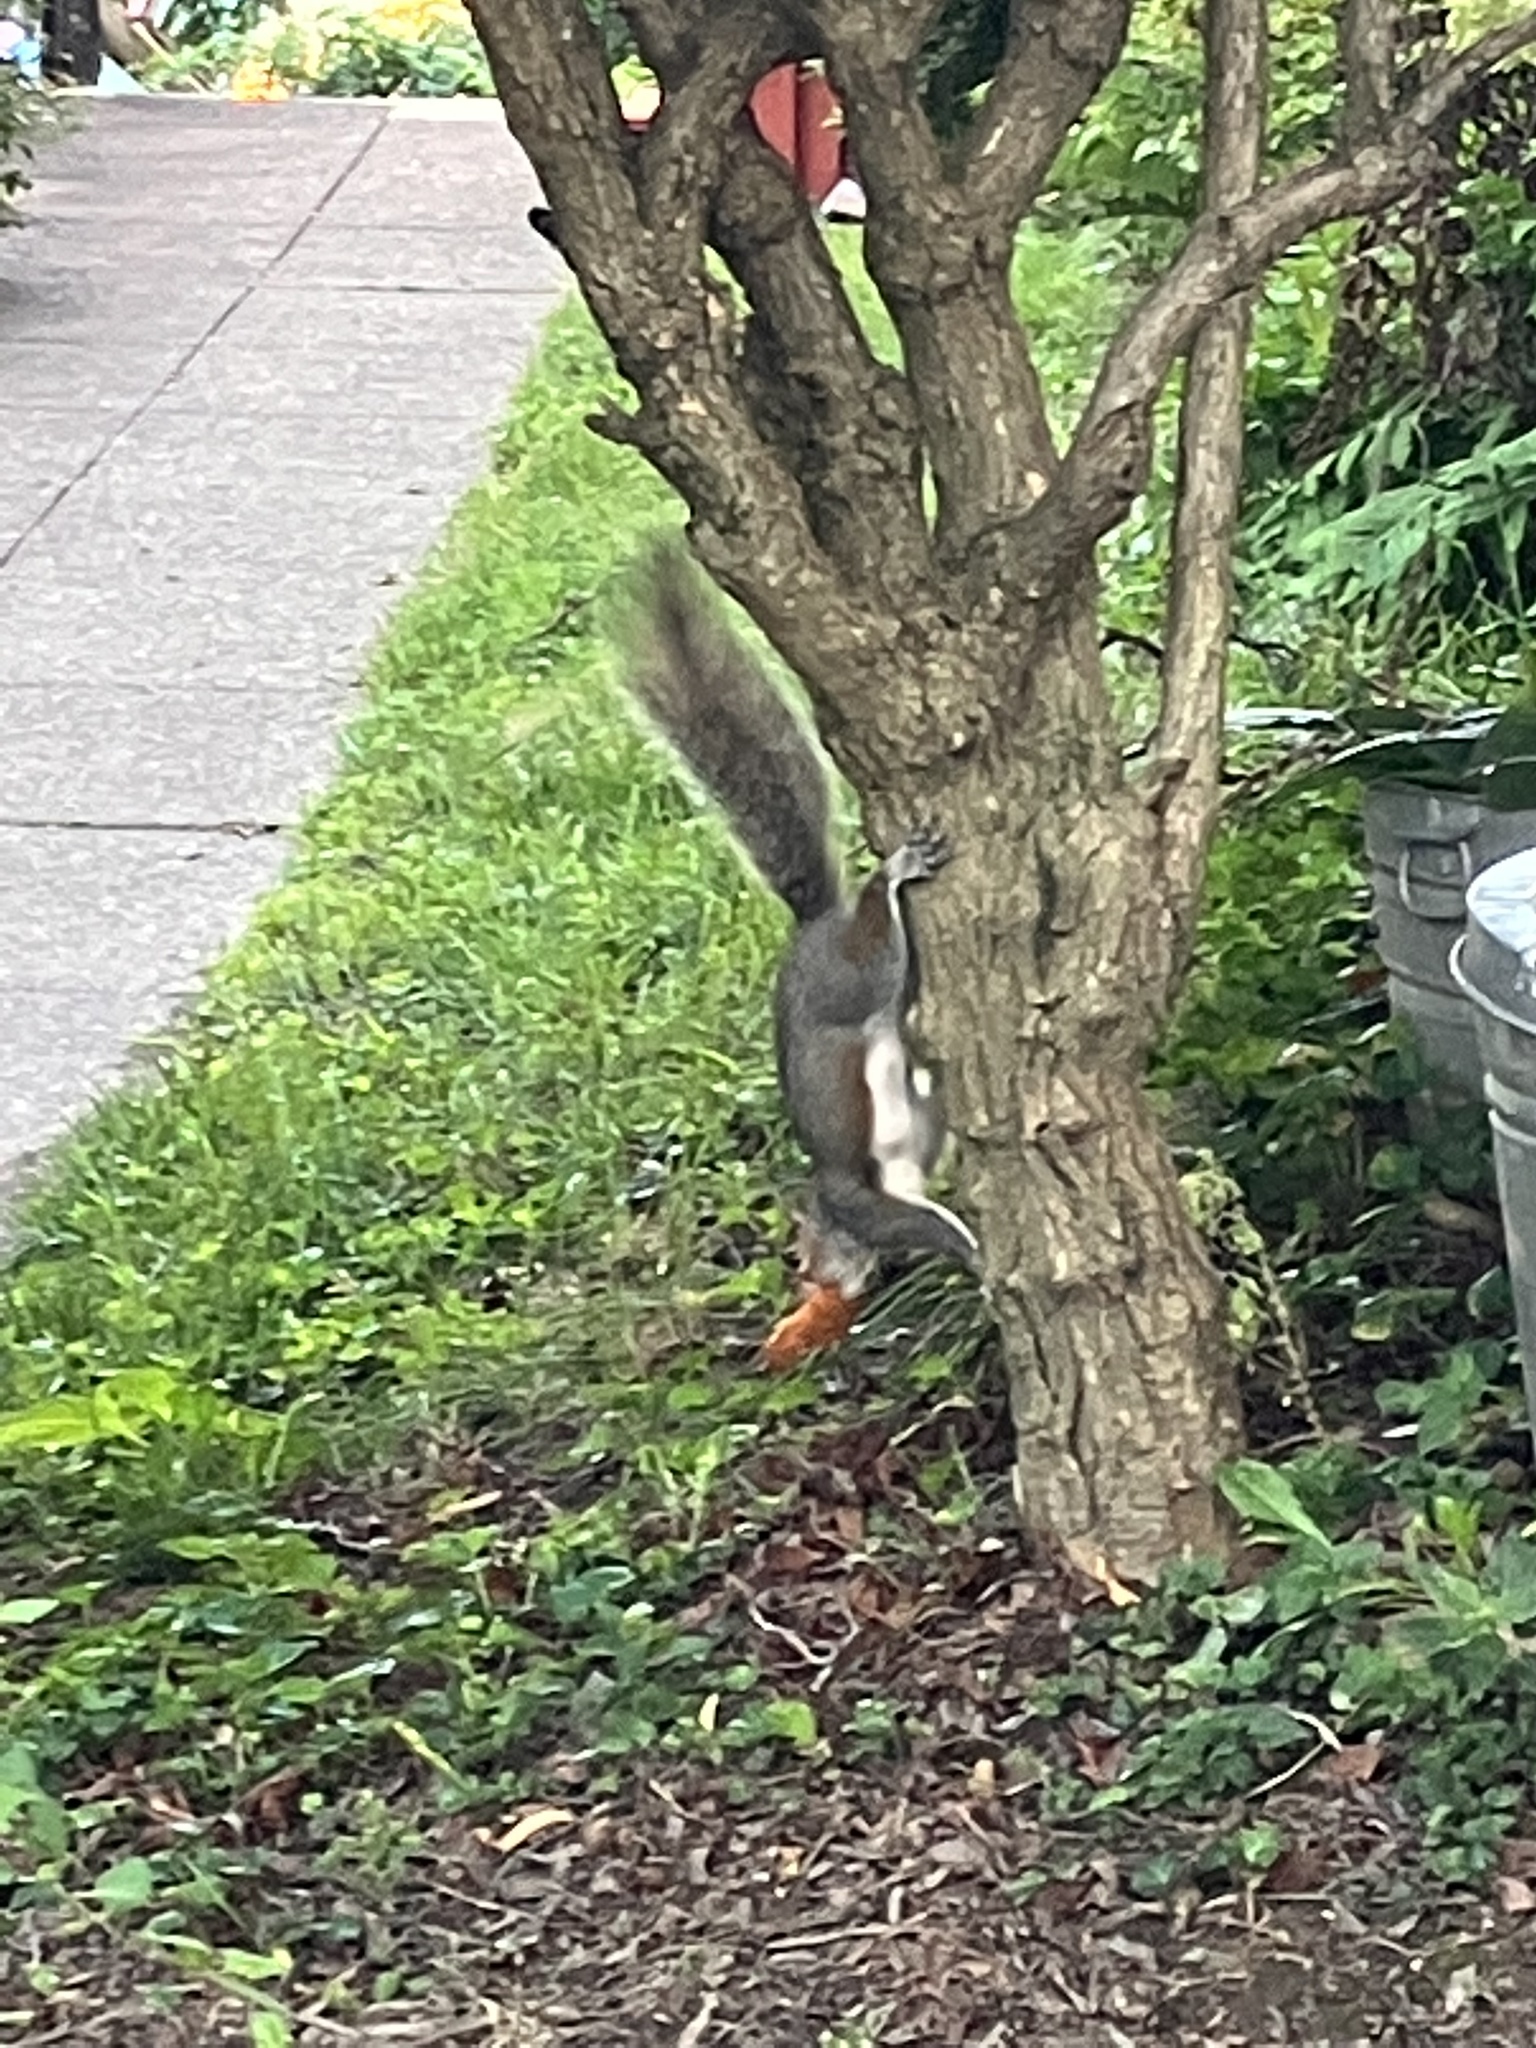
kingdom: Animalia
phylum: Chordata
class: Mammalia
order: Rodentia
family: Sciuridae
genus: Sciurus
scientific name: Sciurus carolinensis
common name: Eastern gray squirrel
